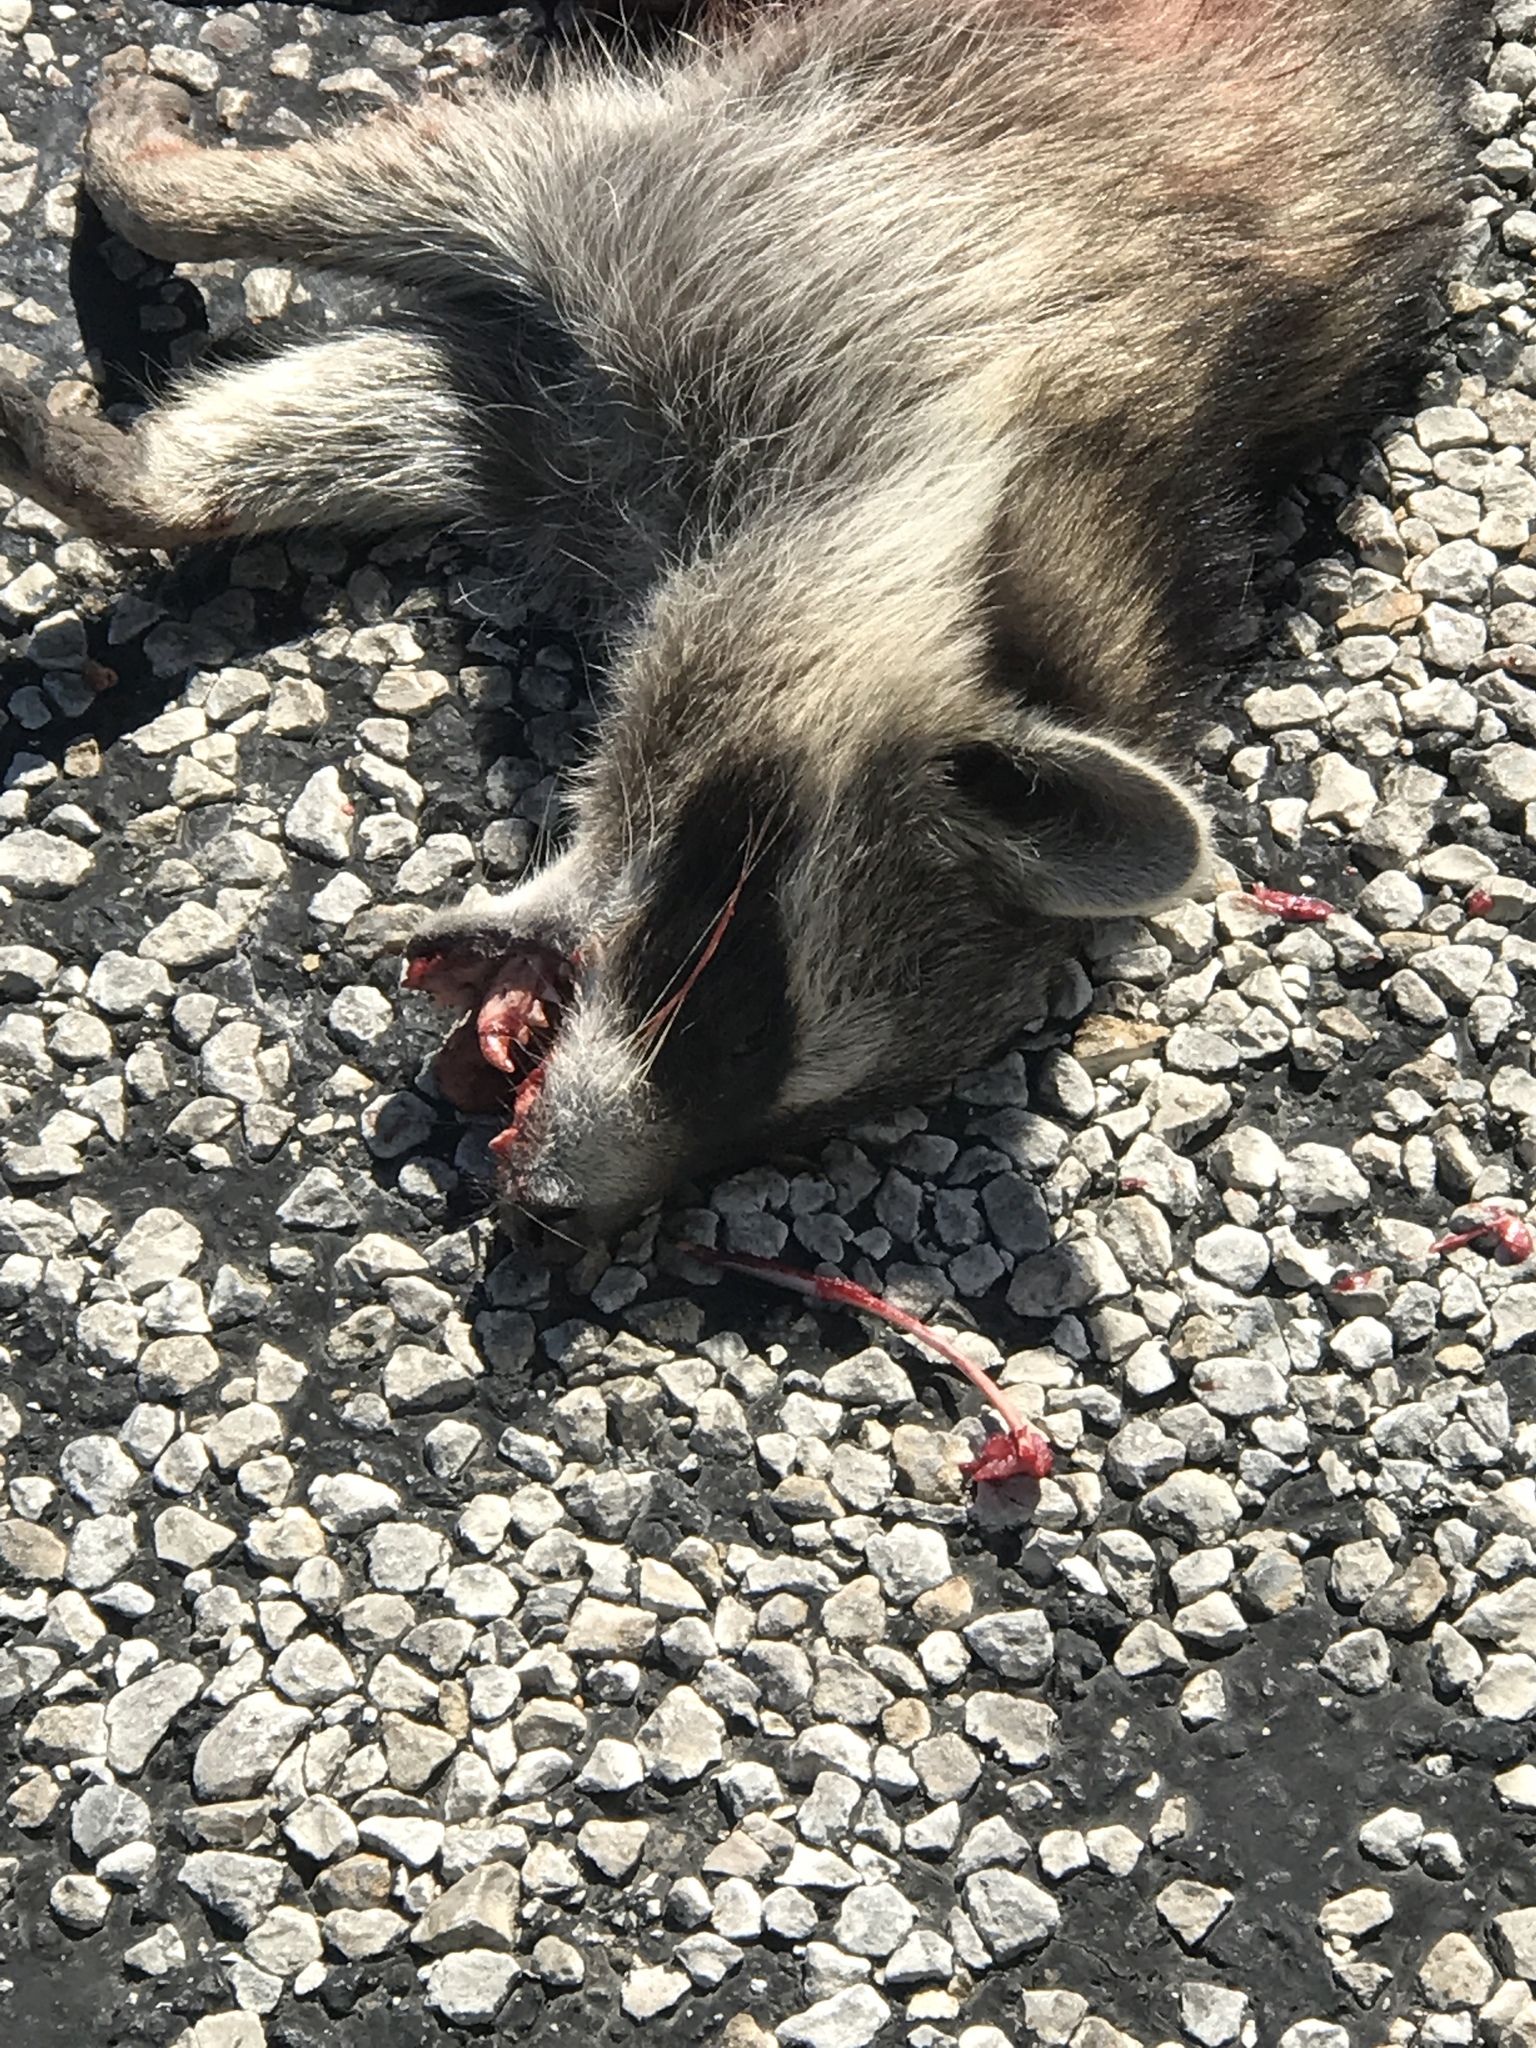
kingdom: Animalia
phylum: Chordata
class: Mammalia
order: Carnivora
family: Procyonidae
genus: Procyon
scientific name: Procyon lotor
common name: Raccoon
